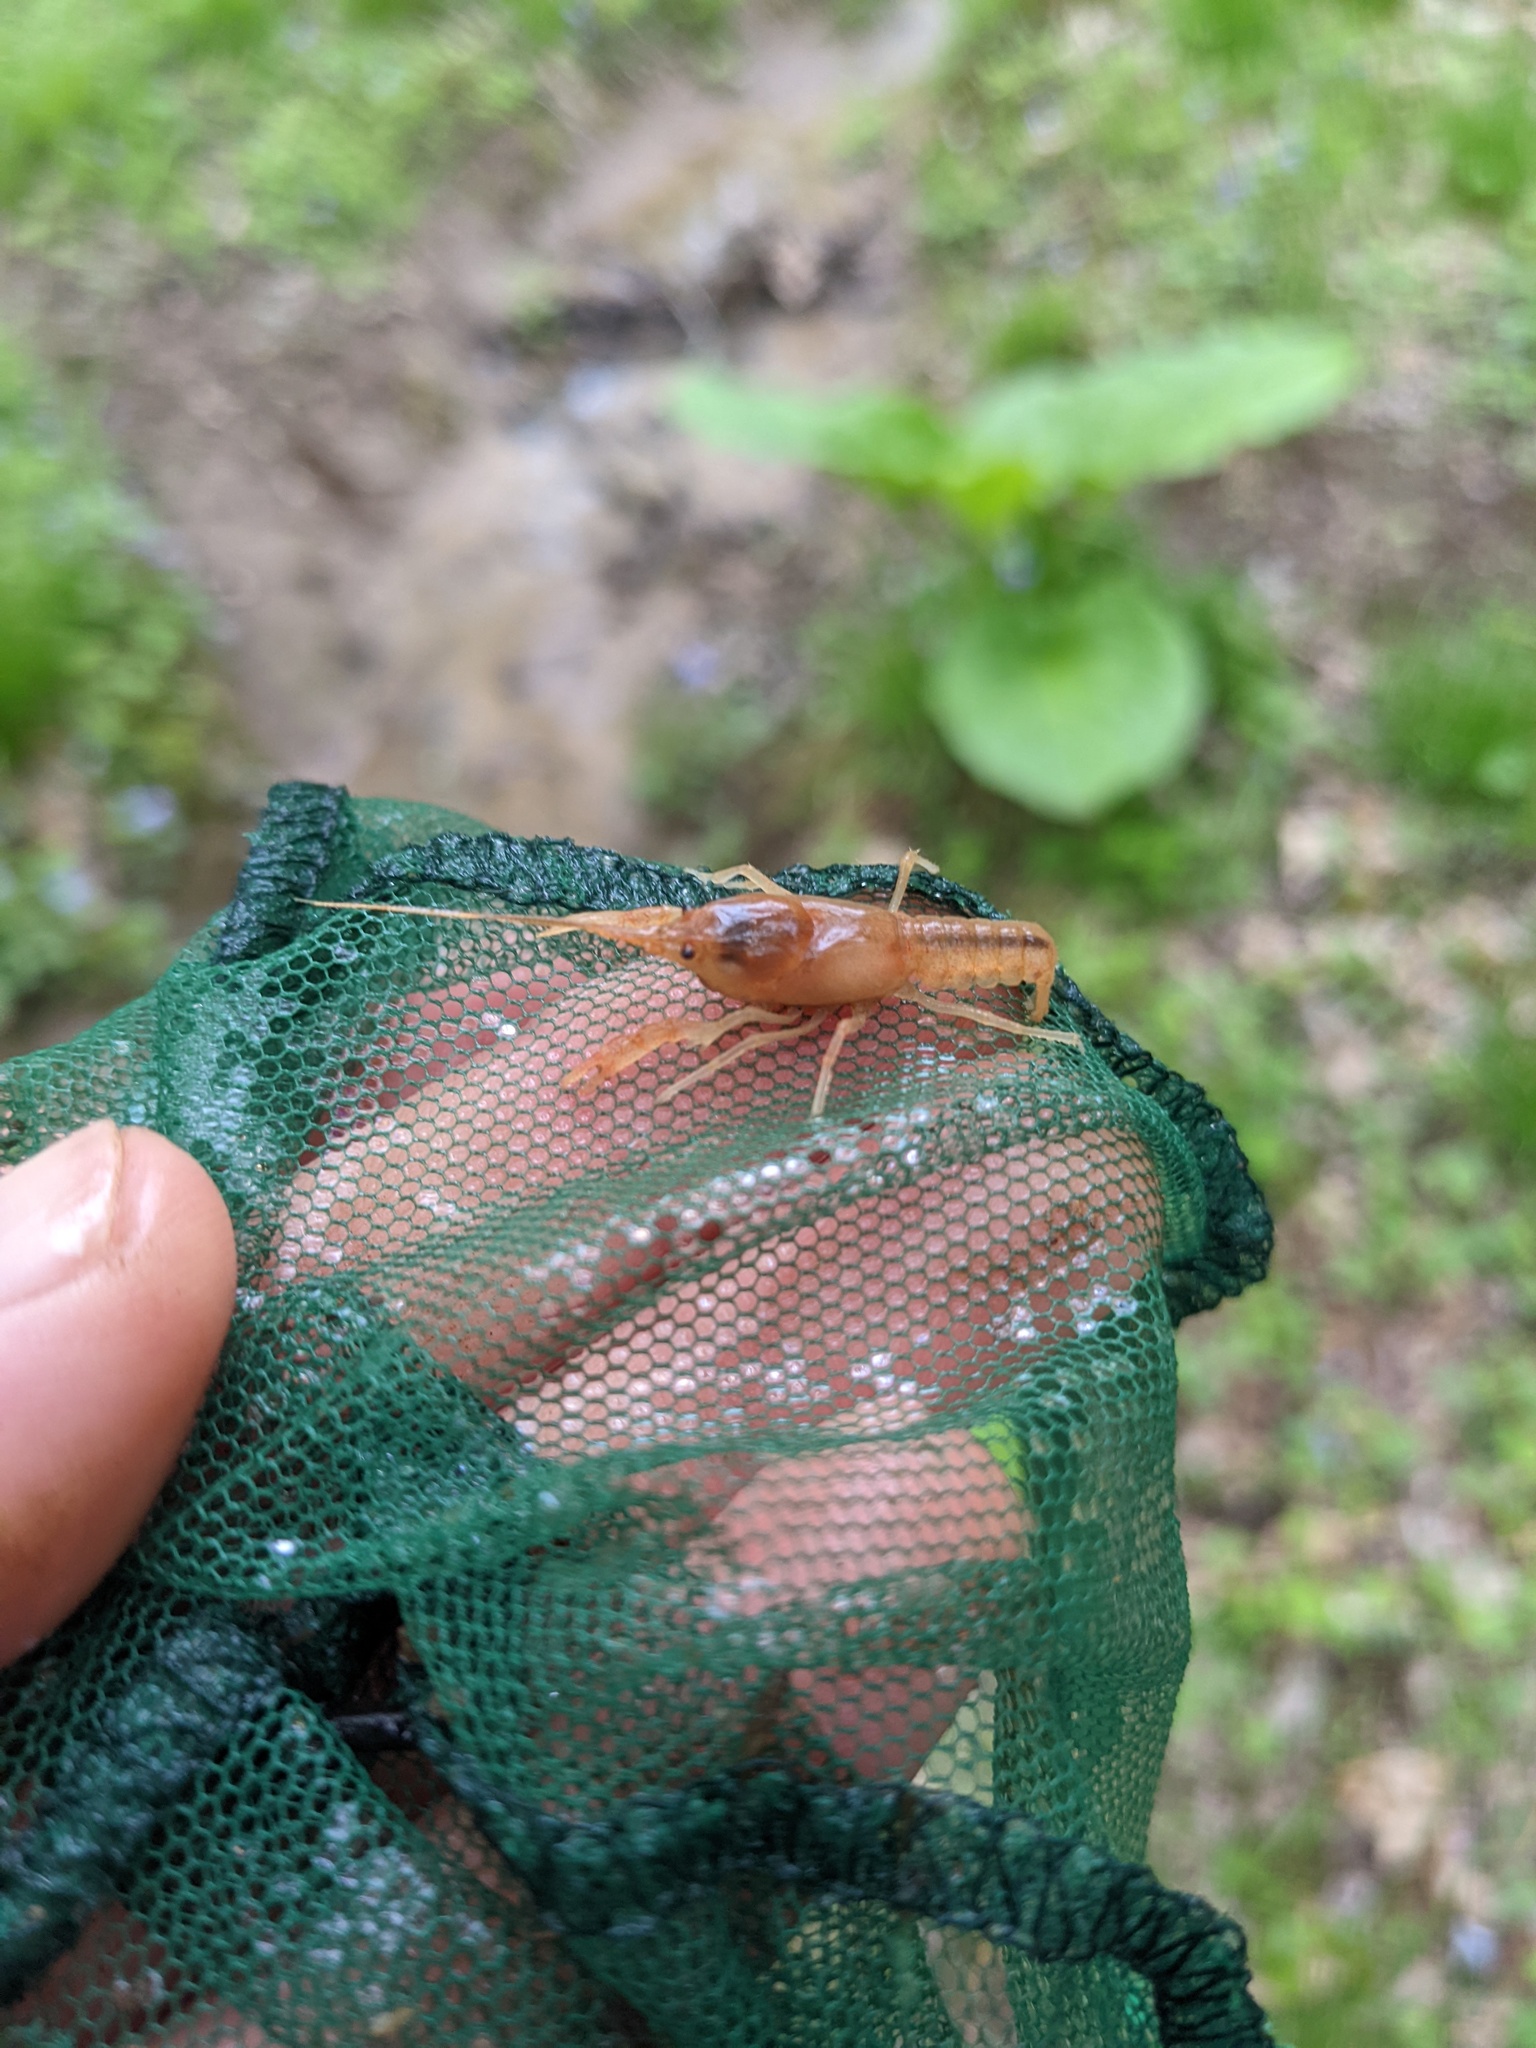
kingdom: Animalia
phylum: Arthropoda
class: Malacostraca
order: Decapoda
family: Cambaridae
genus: Cambarus
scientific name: Cambarus dubius
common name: Upland burrowing crayfish
